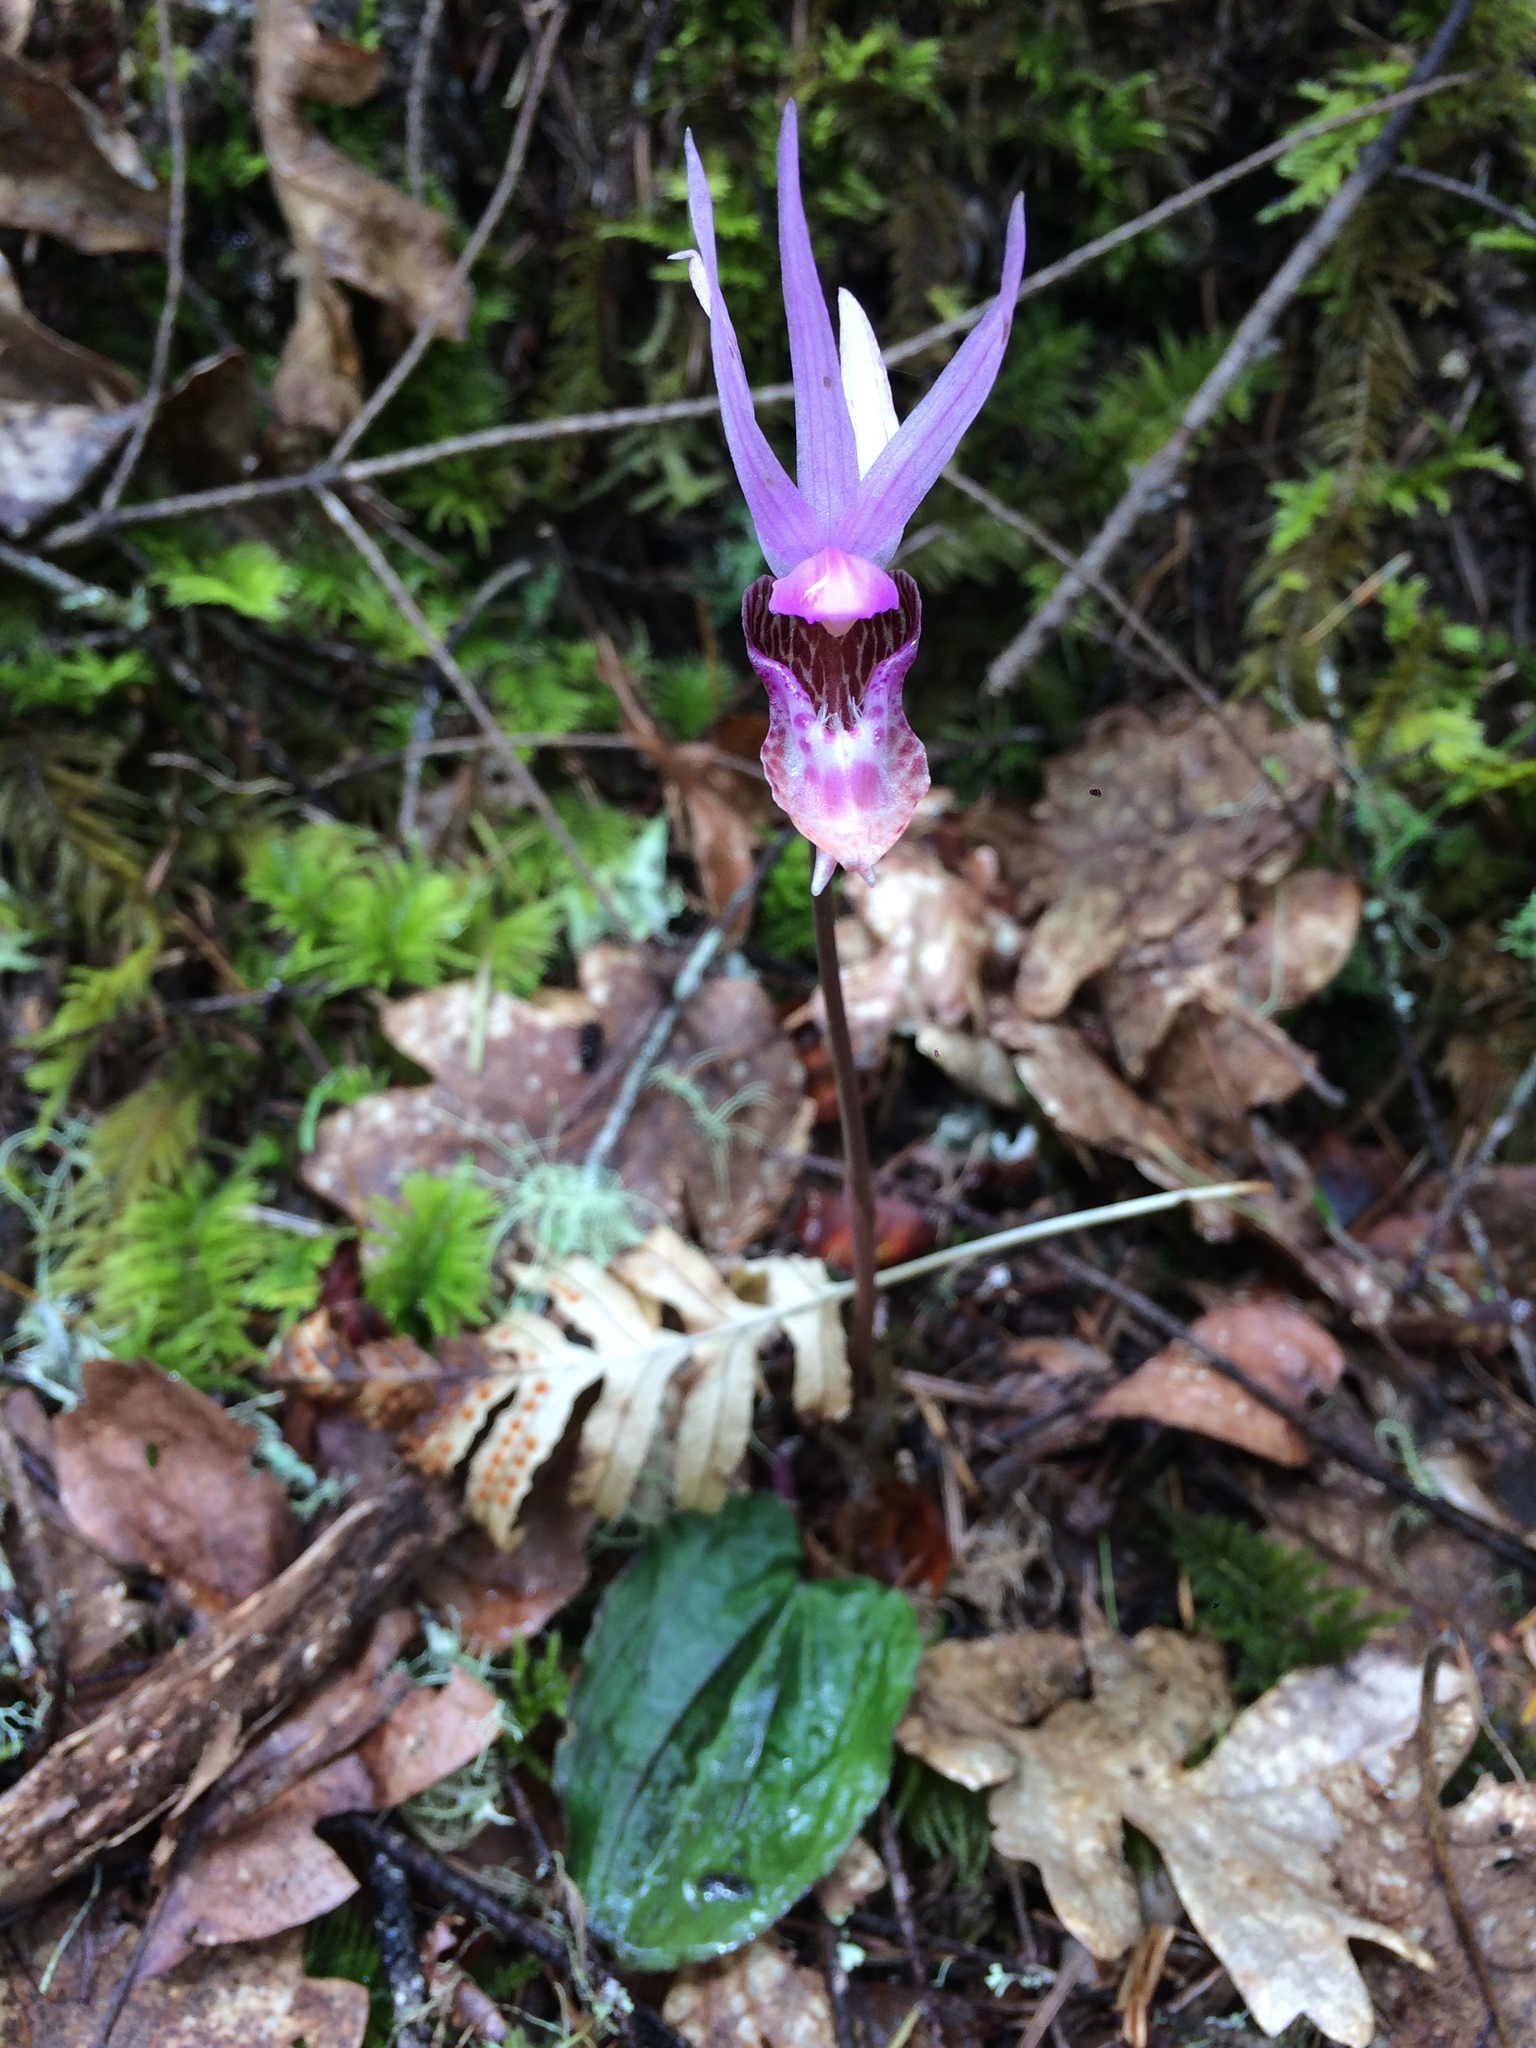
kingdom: Plantae
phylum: Tracheophyta
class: Liliopsida
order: Asparagales
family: Orchidaceae
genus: Calypso
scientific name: Calypso bulbosa
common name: Calypso
